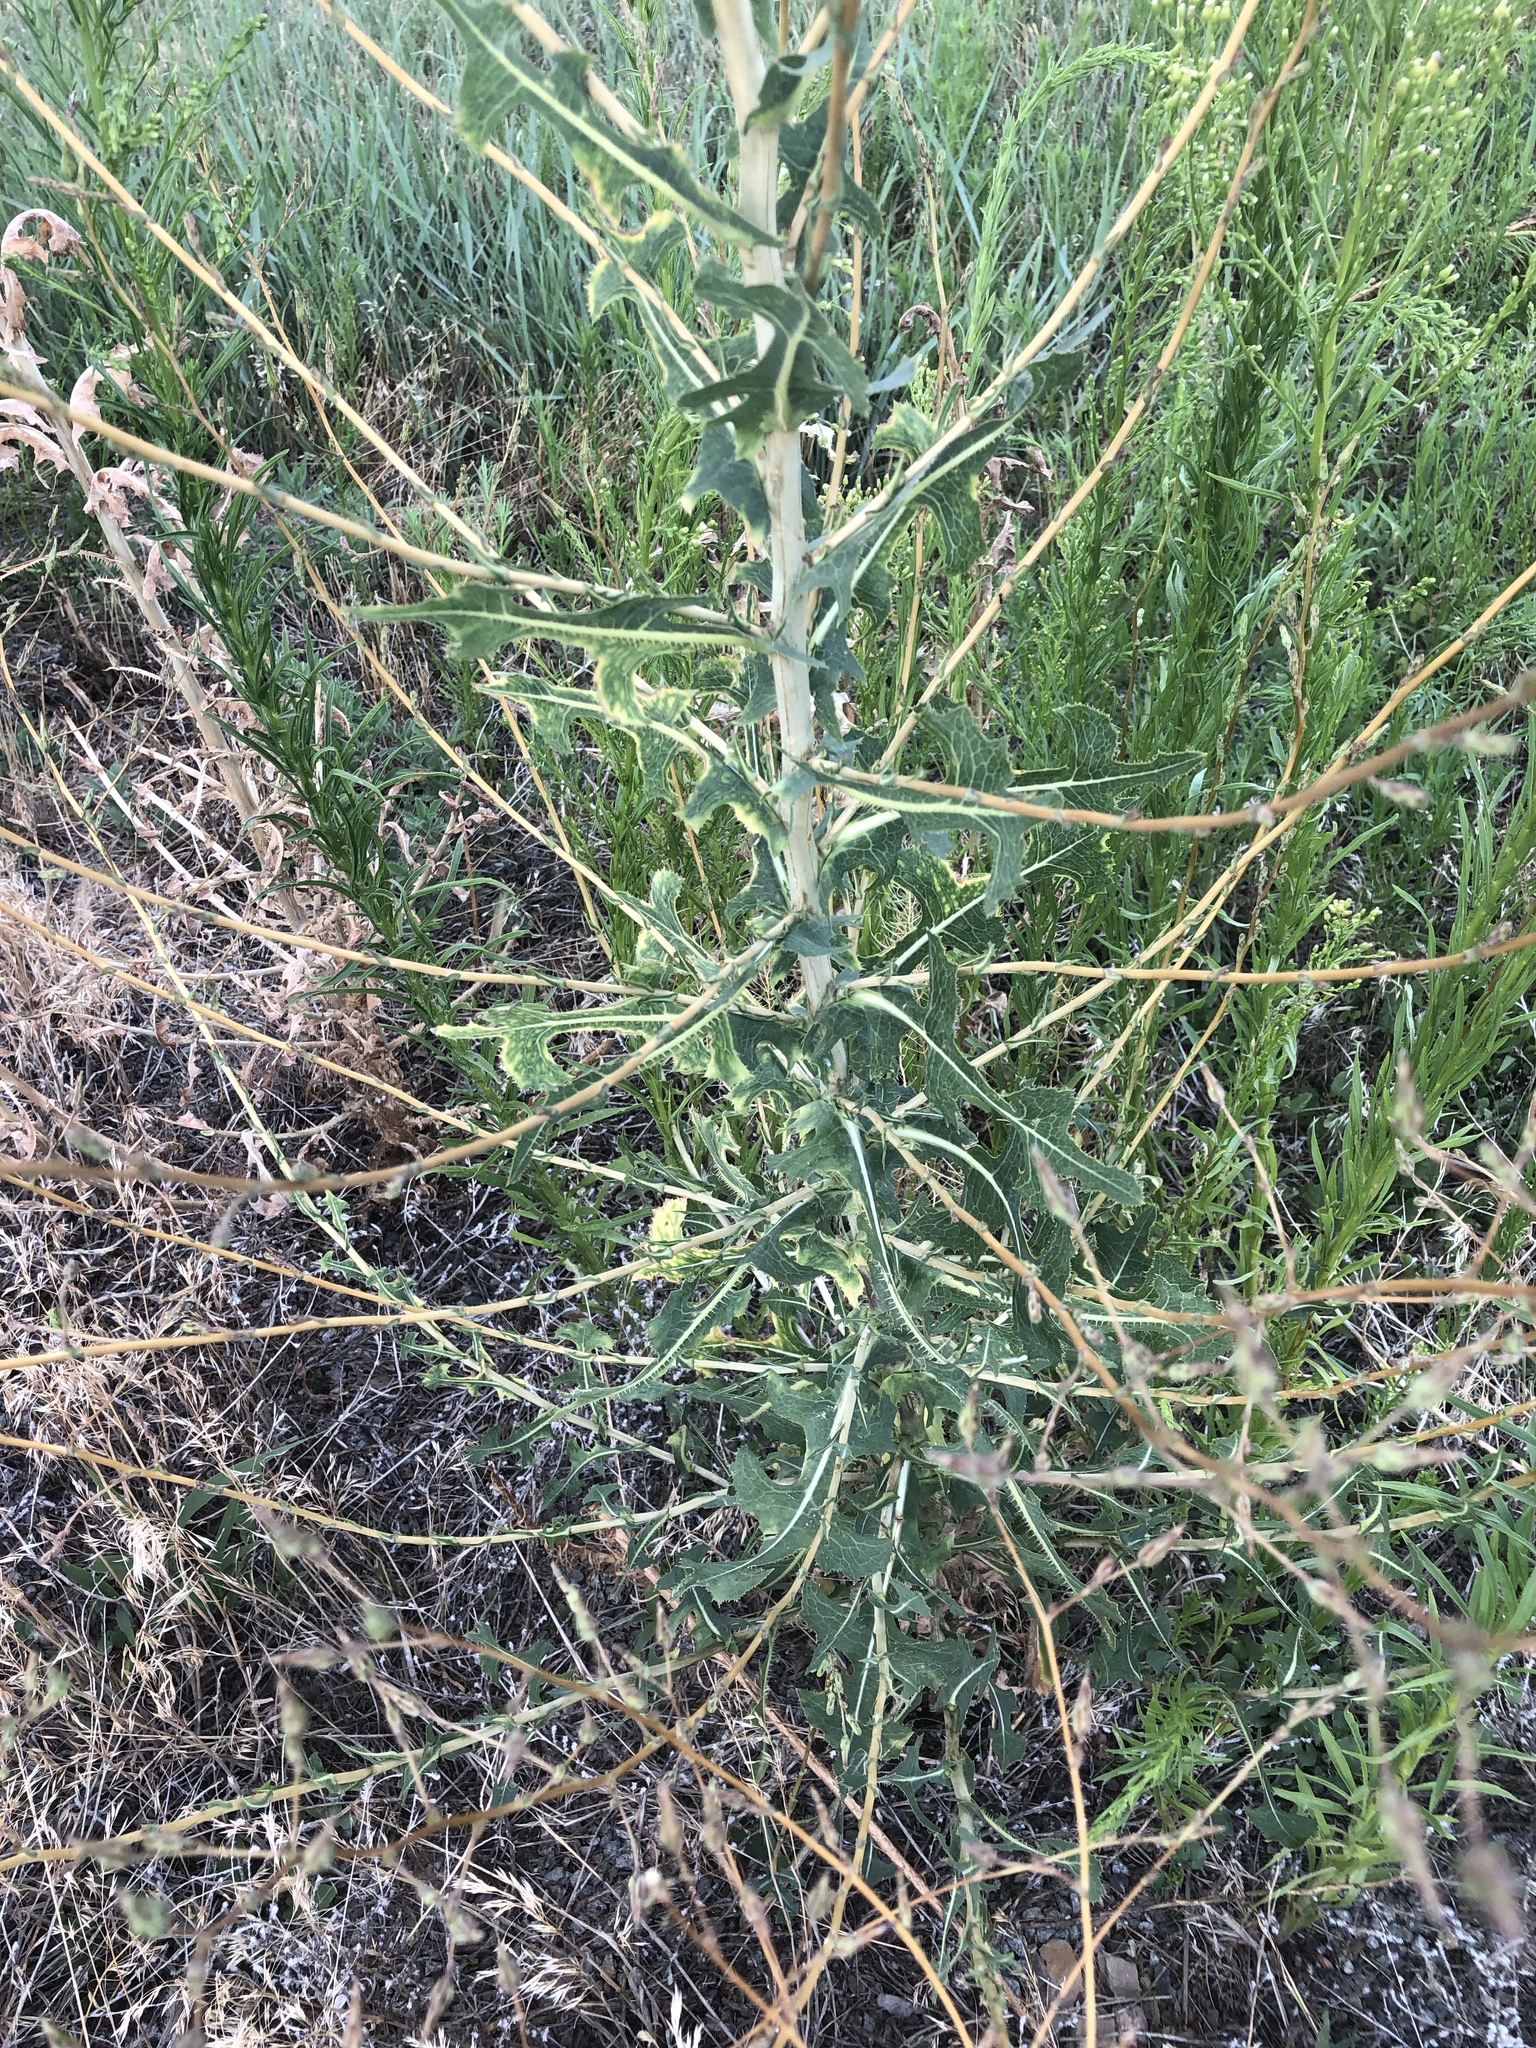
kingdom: Plantae
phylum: Tracheophyta
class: Magnoliopsida
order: Asterales
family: Asteraceae
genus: Lactuca
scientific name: Lactuca serriola
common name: Prickly lettuce
